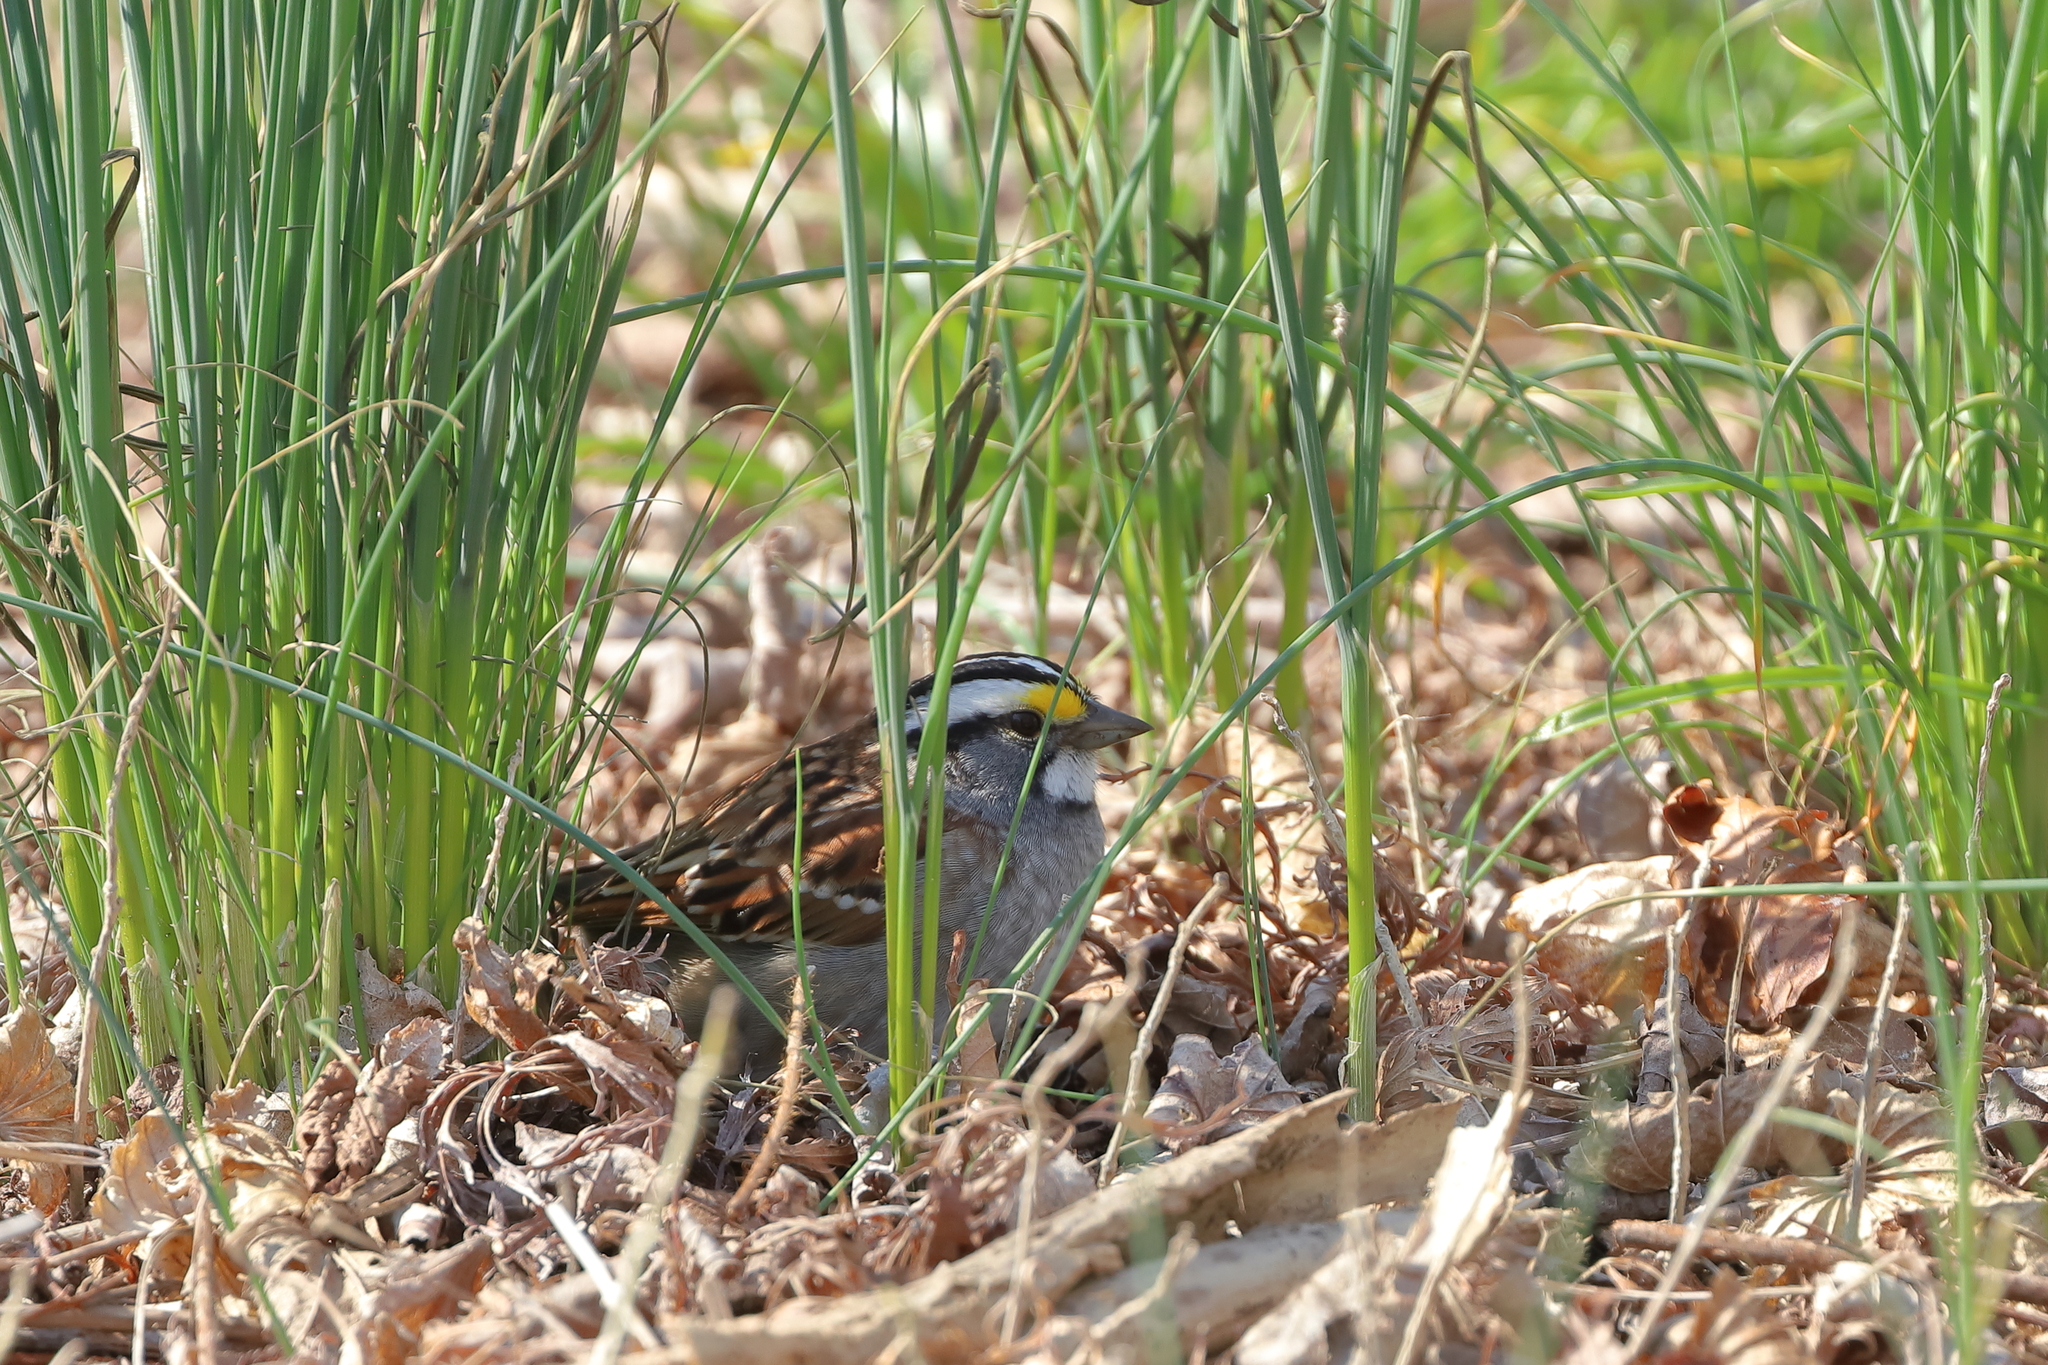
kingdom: Animalia
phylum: Chordata
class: Aves
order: Passeriformes
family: Passerellidae
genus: Zonotrichia
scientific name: Zonotrichia albicollis
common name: White-throated sparrow
